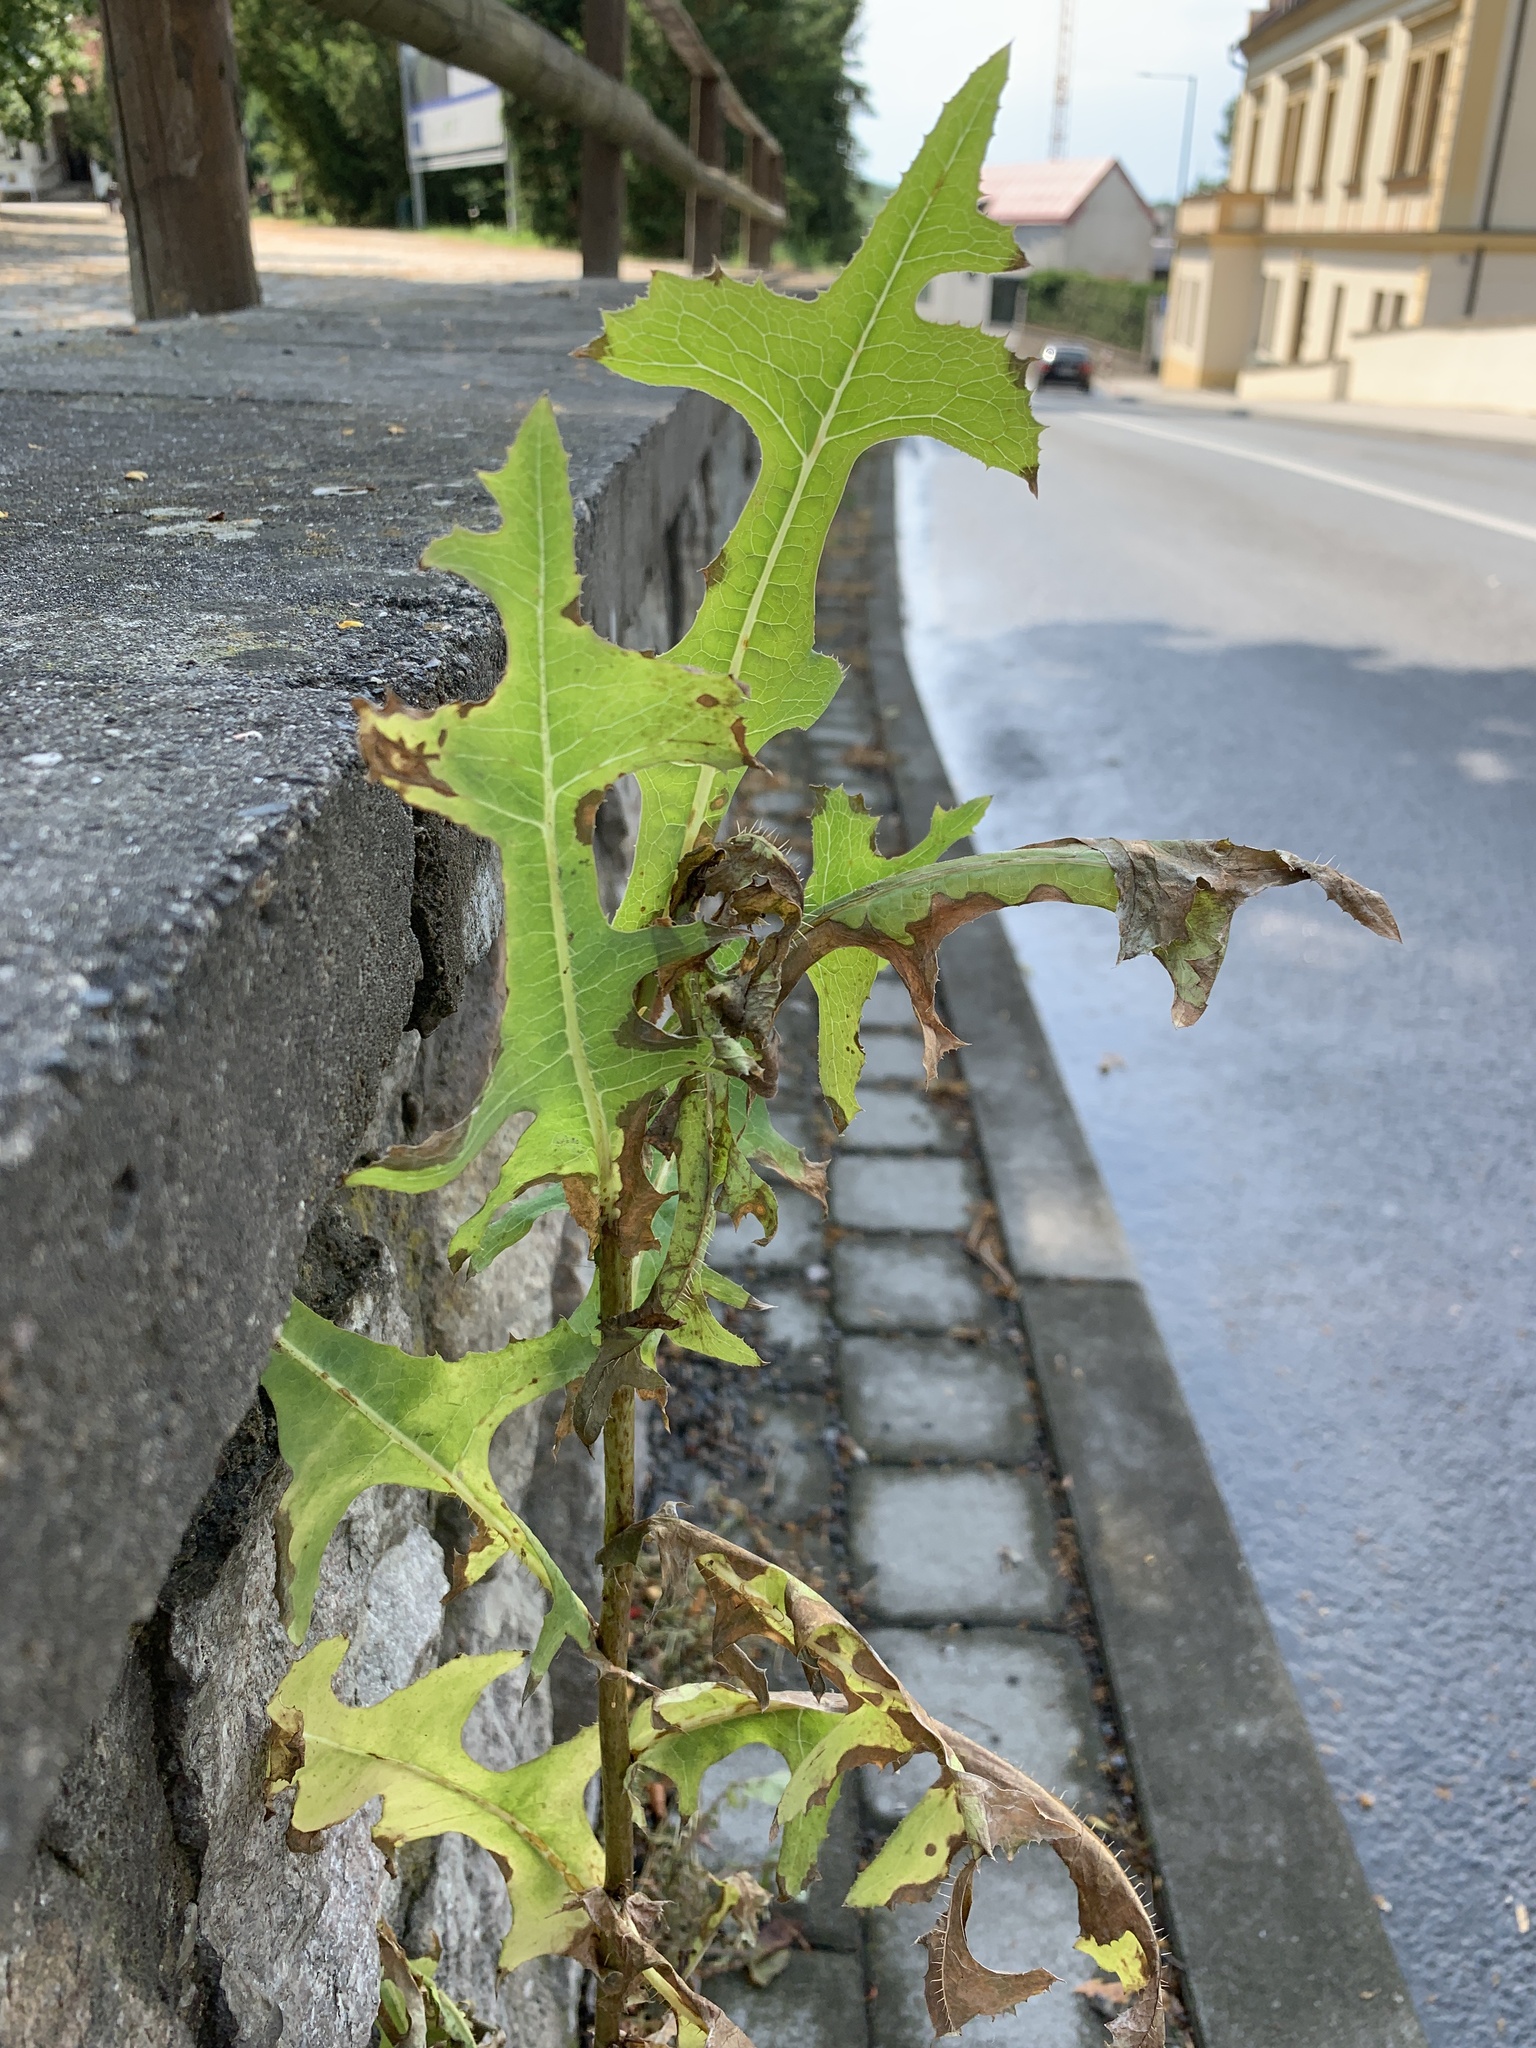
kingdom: Plantae
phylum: Tracheophyta
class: Magnoliopsida
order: Asterales
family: Asteraceae
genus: Lactuca
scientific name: Lactuca serriola
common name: Prickly lettuce
